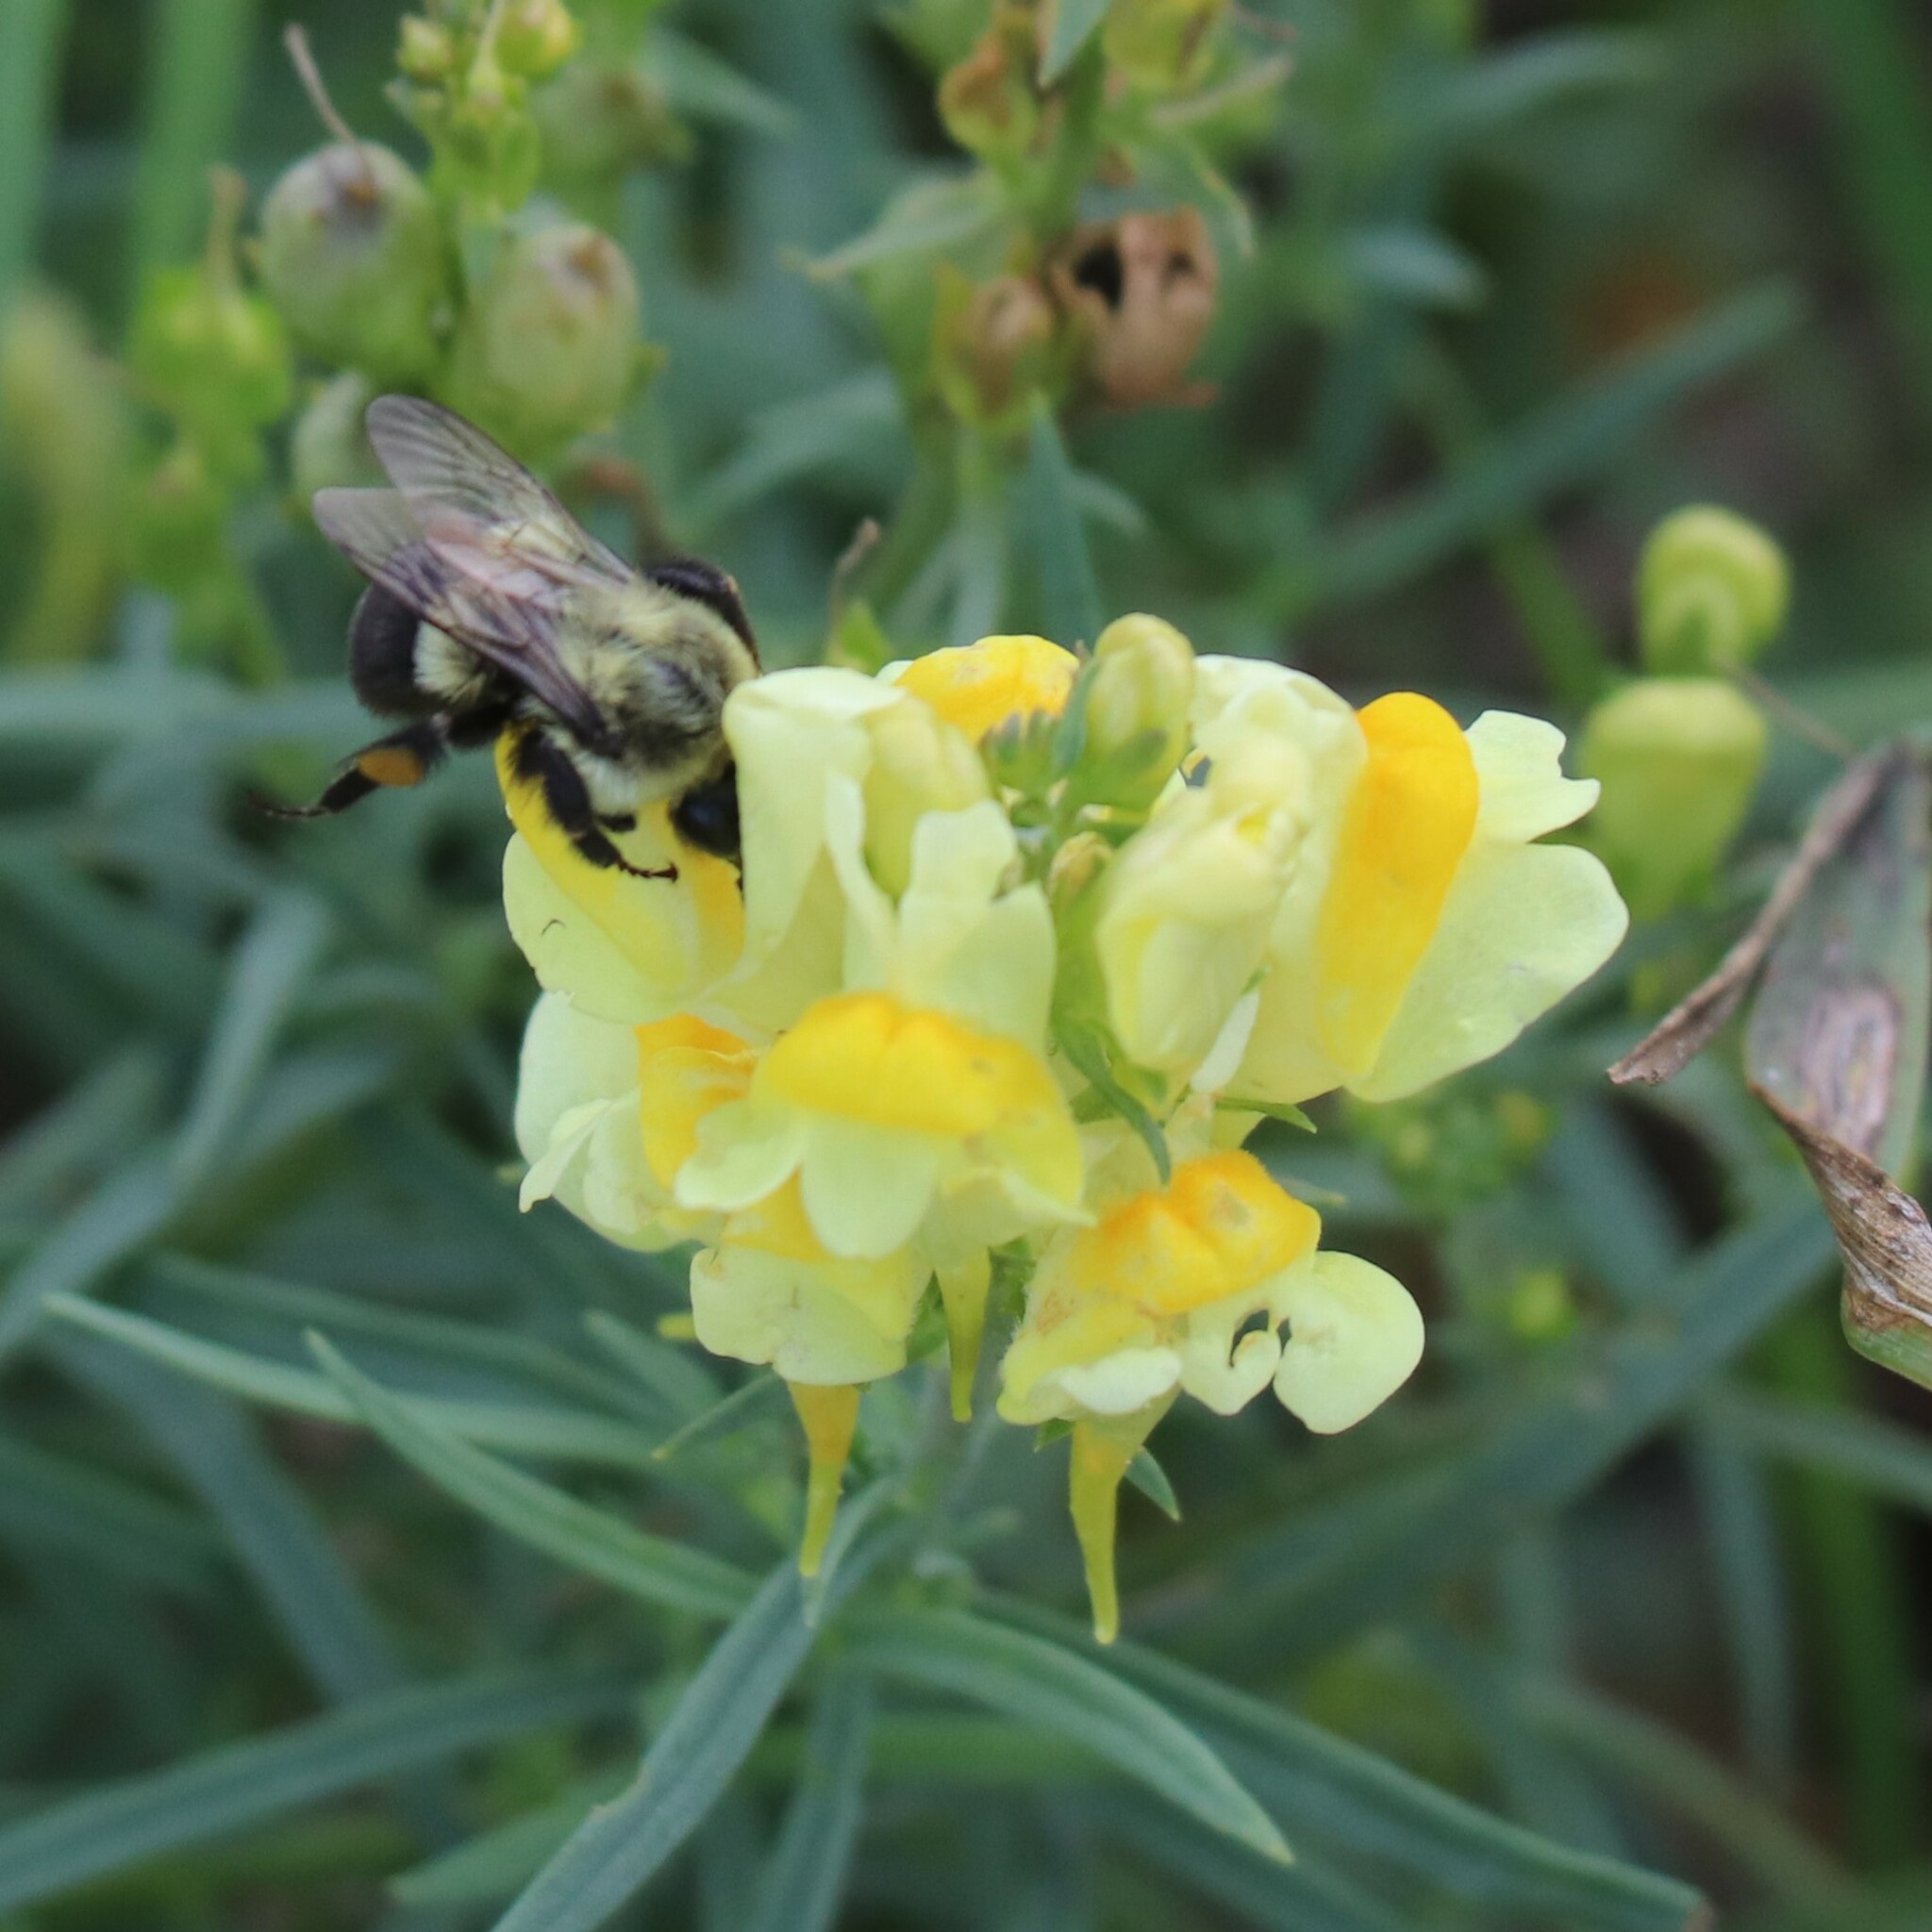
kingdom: Animalia
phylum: Arthropoda
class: Insecta
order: Hymenoptera
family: Apidae
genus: Bombus
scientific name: Bombus impatiens
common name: Common eastern bumble bee
